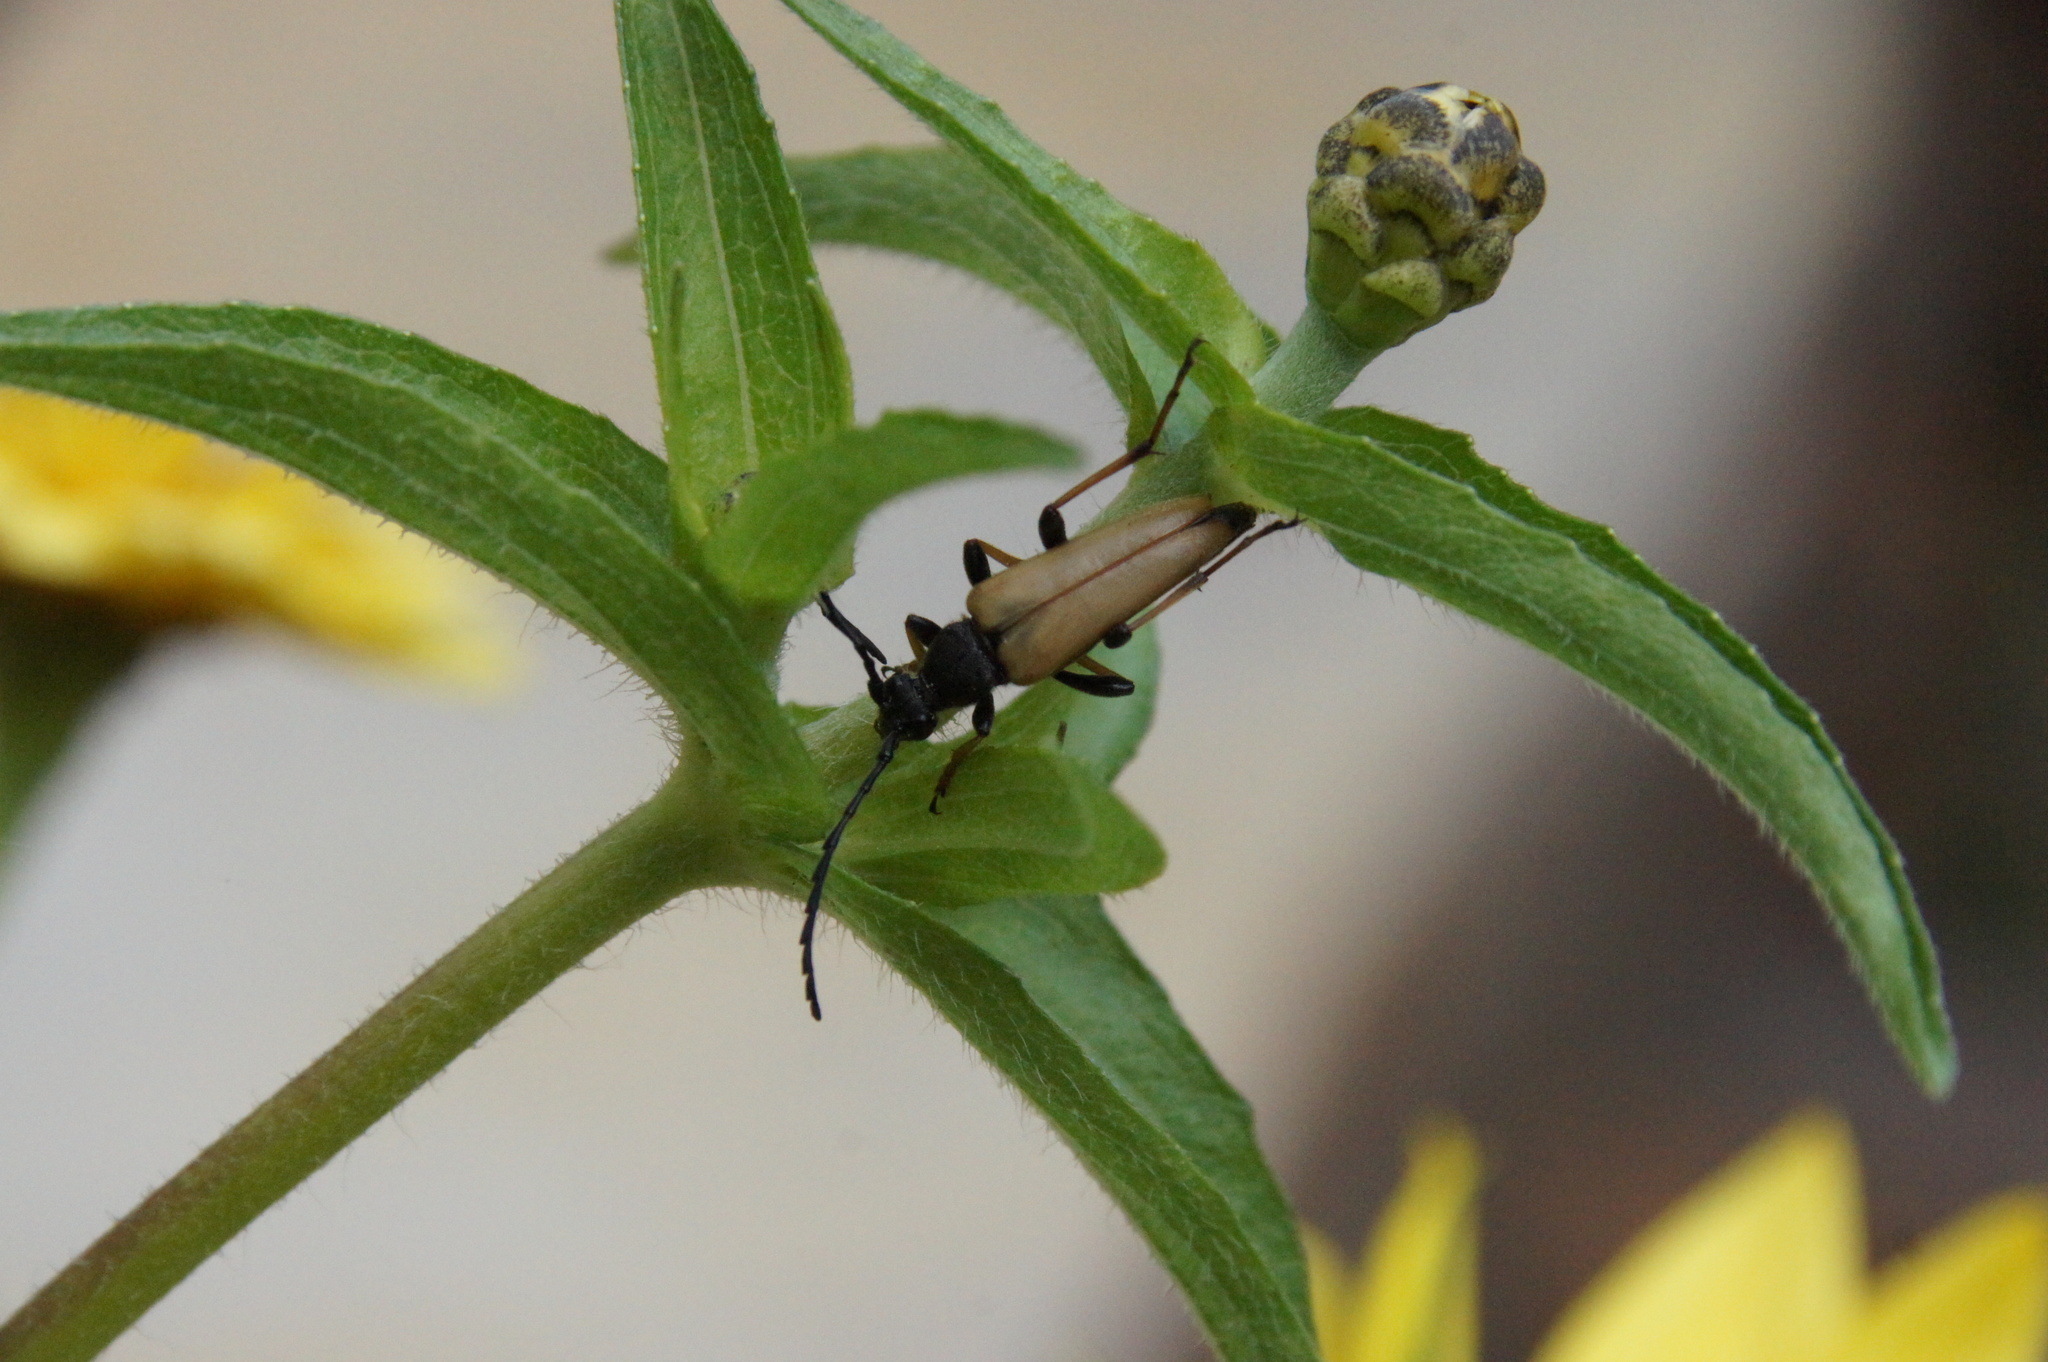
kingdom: Animalia
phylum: Arthropoda
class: Insecta
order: Coleoptera
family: Cerambycidae
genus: Stictoleptura
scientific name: Stictoleptura rubra
